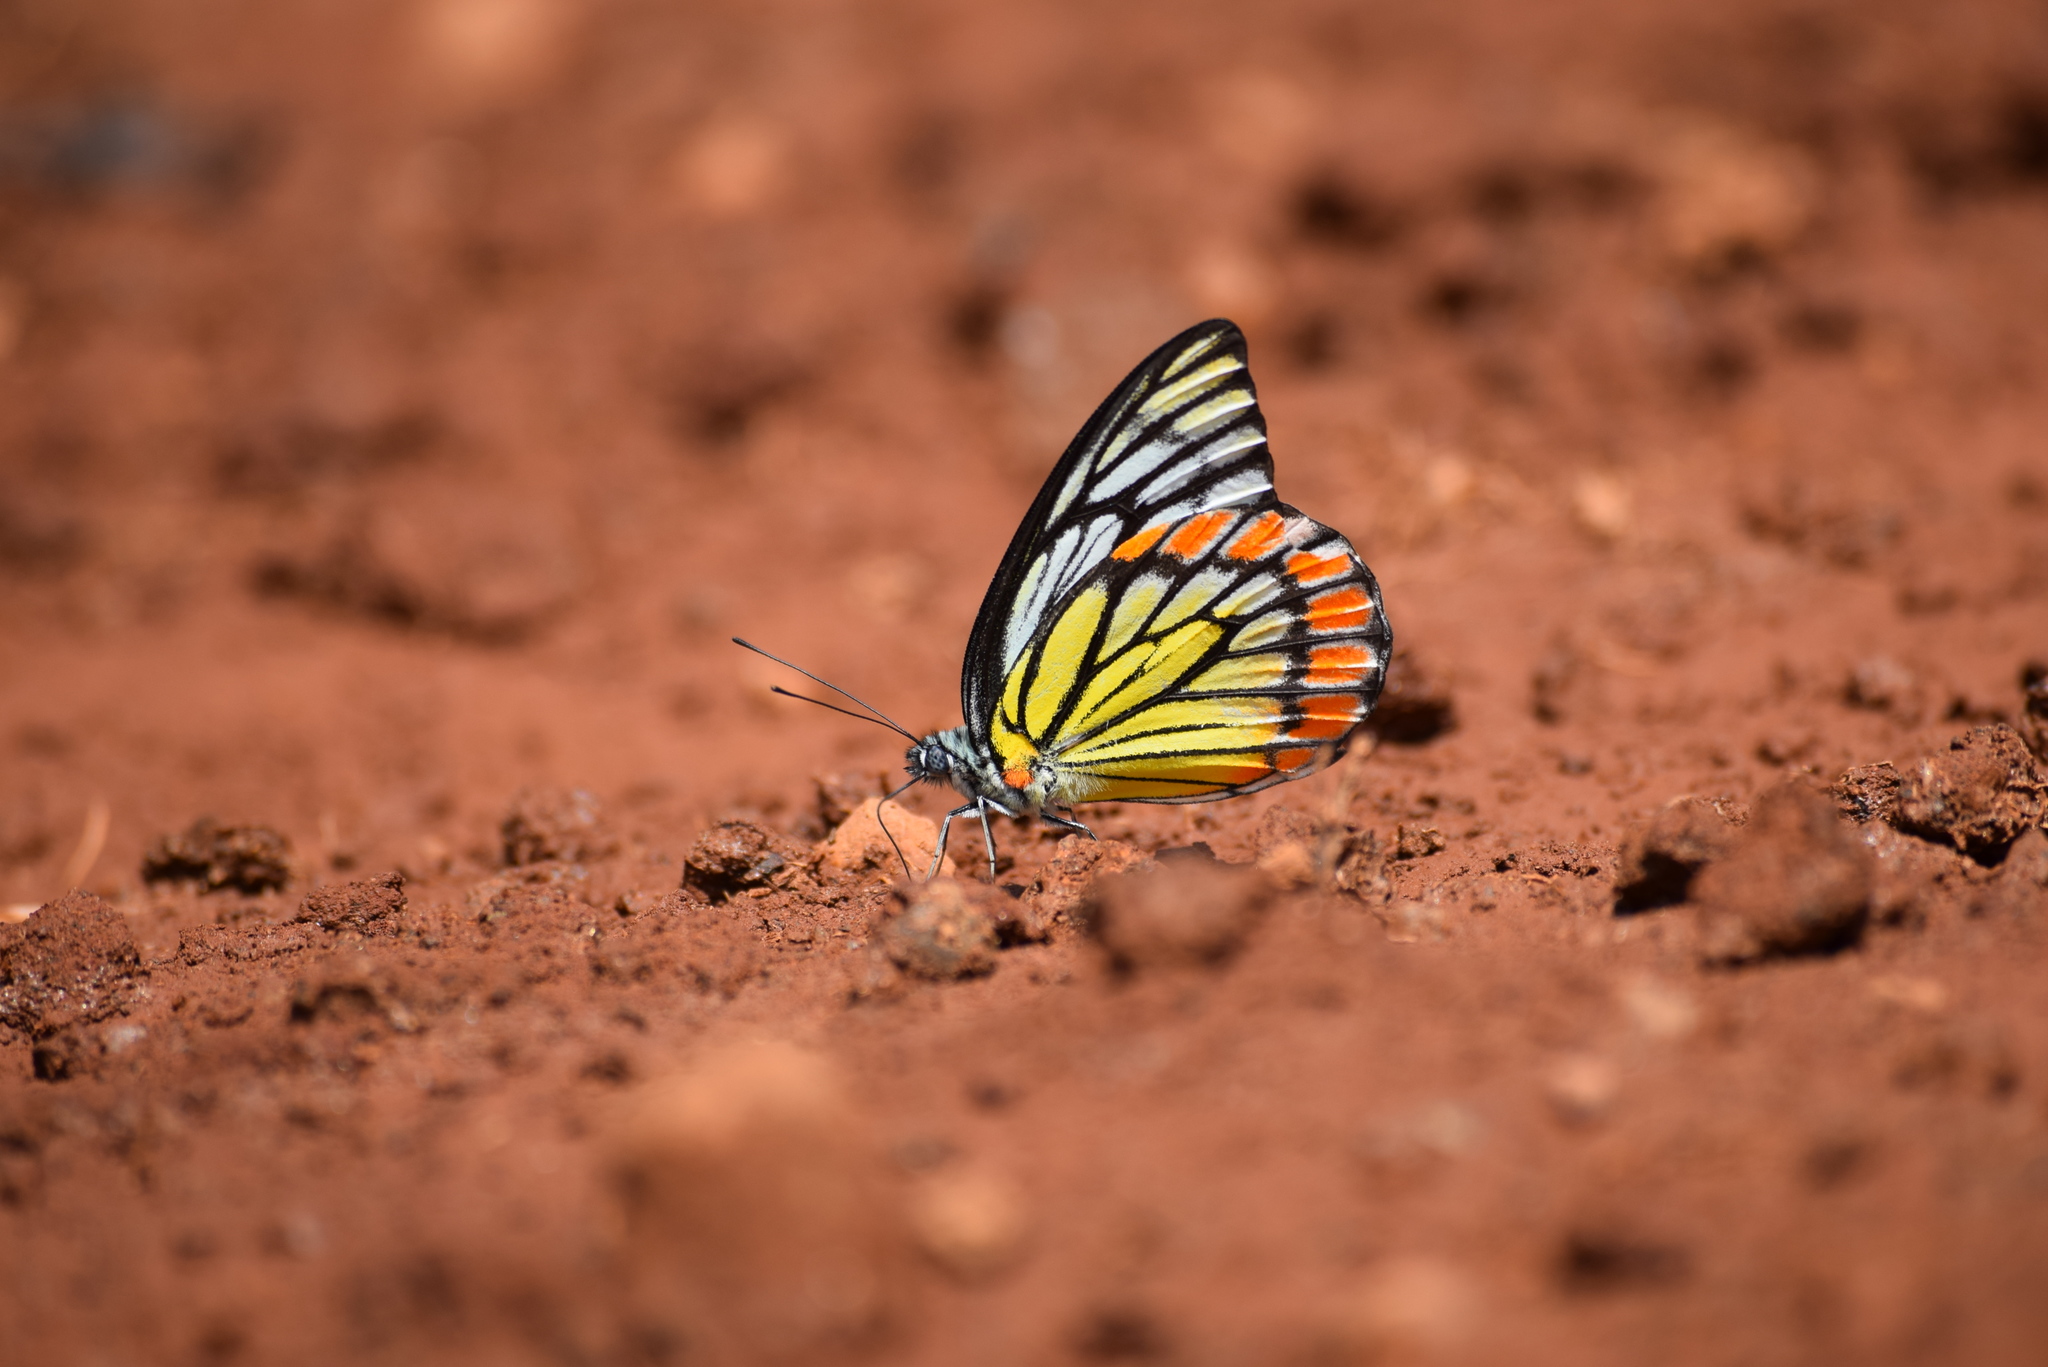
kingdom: Animalia
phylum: Arthropoda
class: Insecta
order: Lepidoptera
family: Pieridae
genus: Prioneris
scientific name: Prioneris sita
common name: Painted sawtooth
